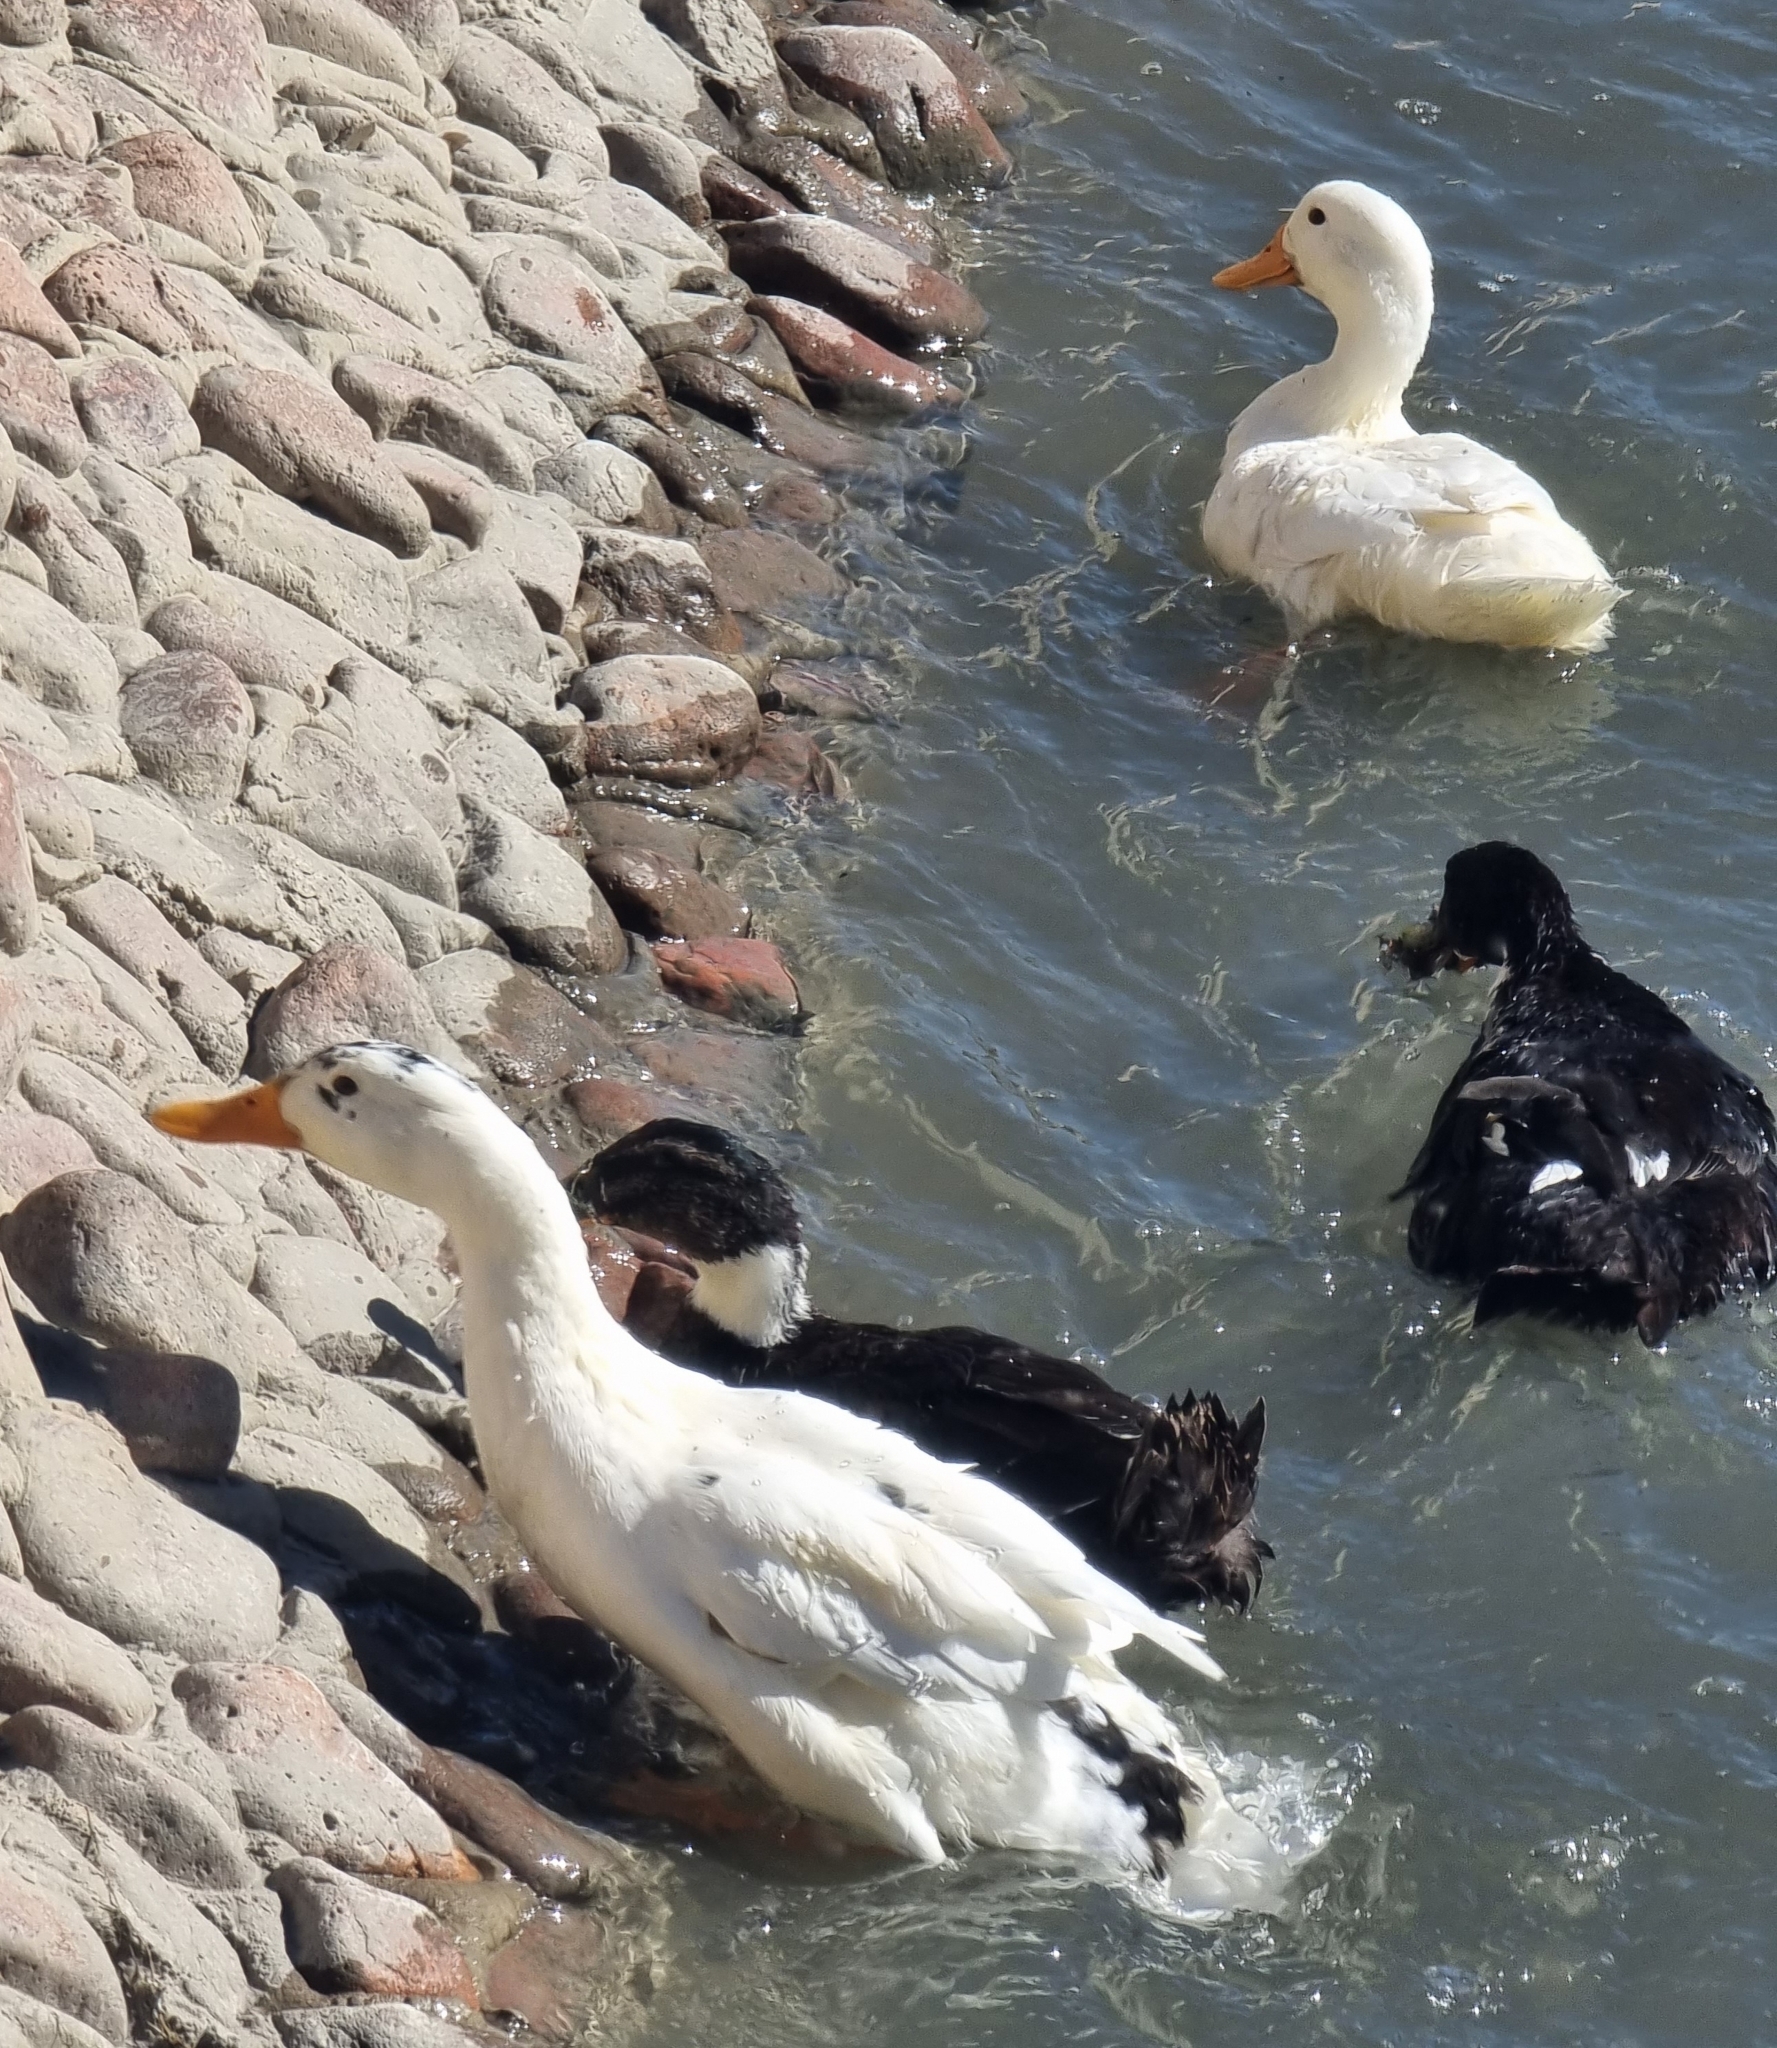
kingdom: Animalia
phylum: Chordata
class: Aves
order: Anseriformes
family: Anatidae
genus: Anas
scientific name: Anas platyrhynchos
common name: Mallard
